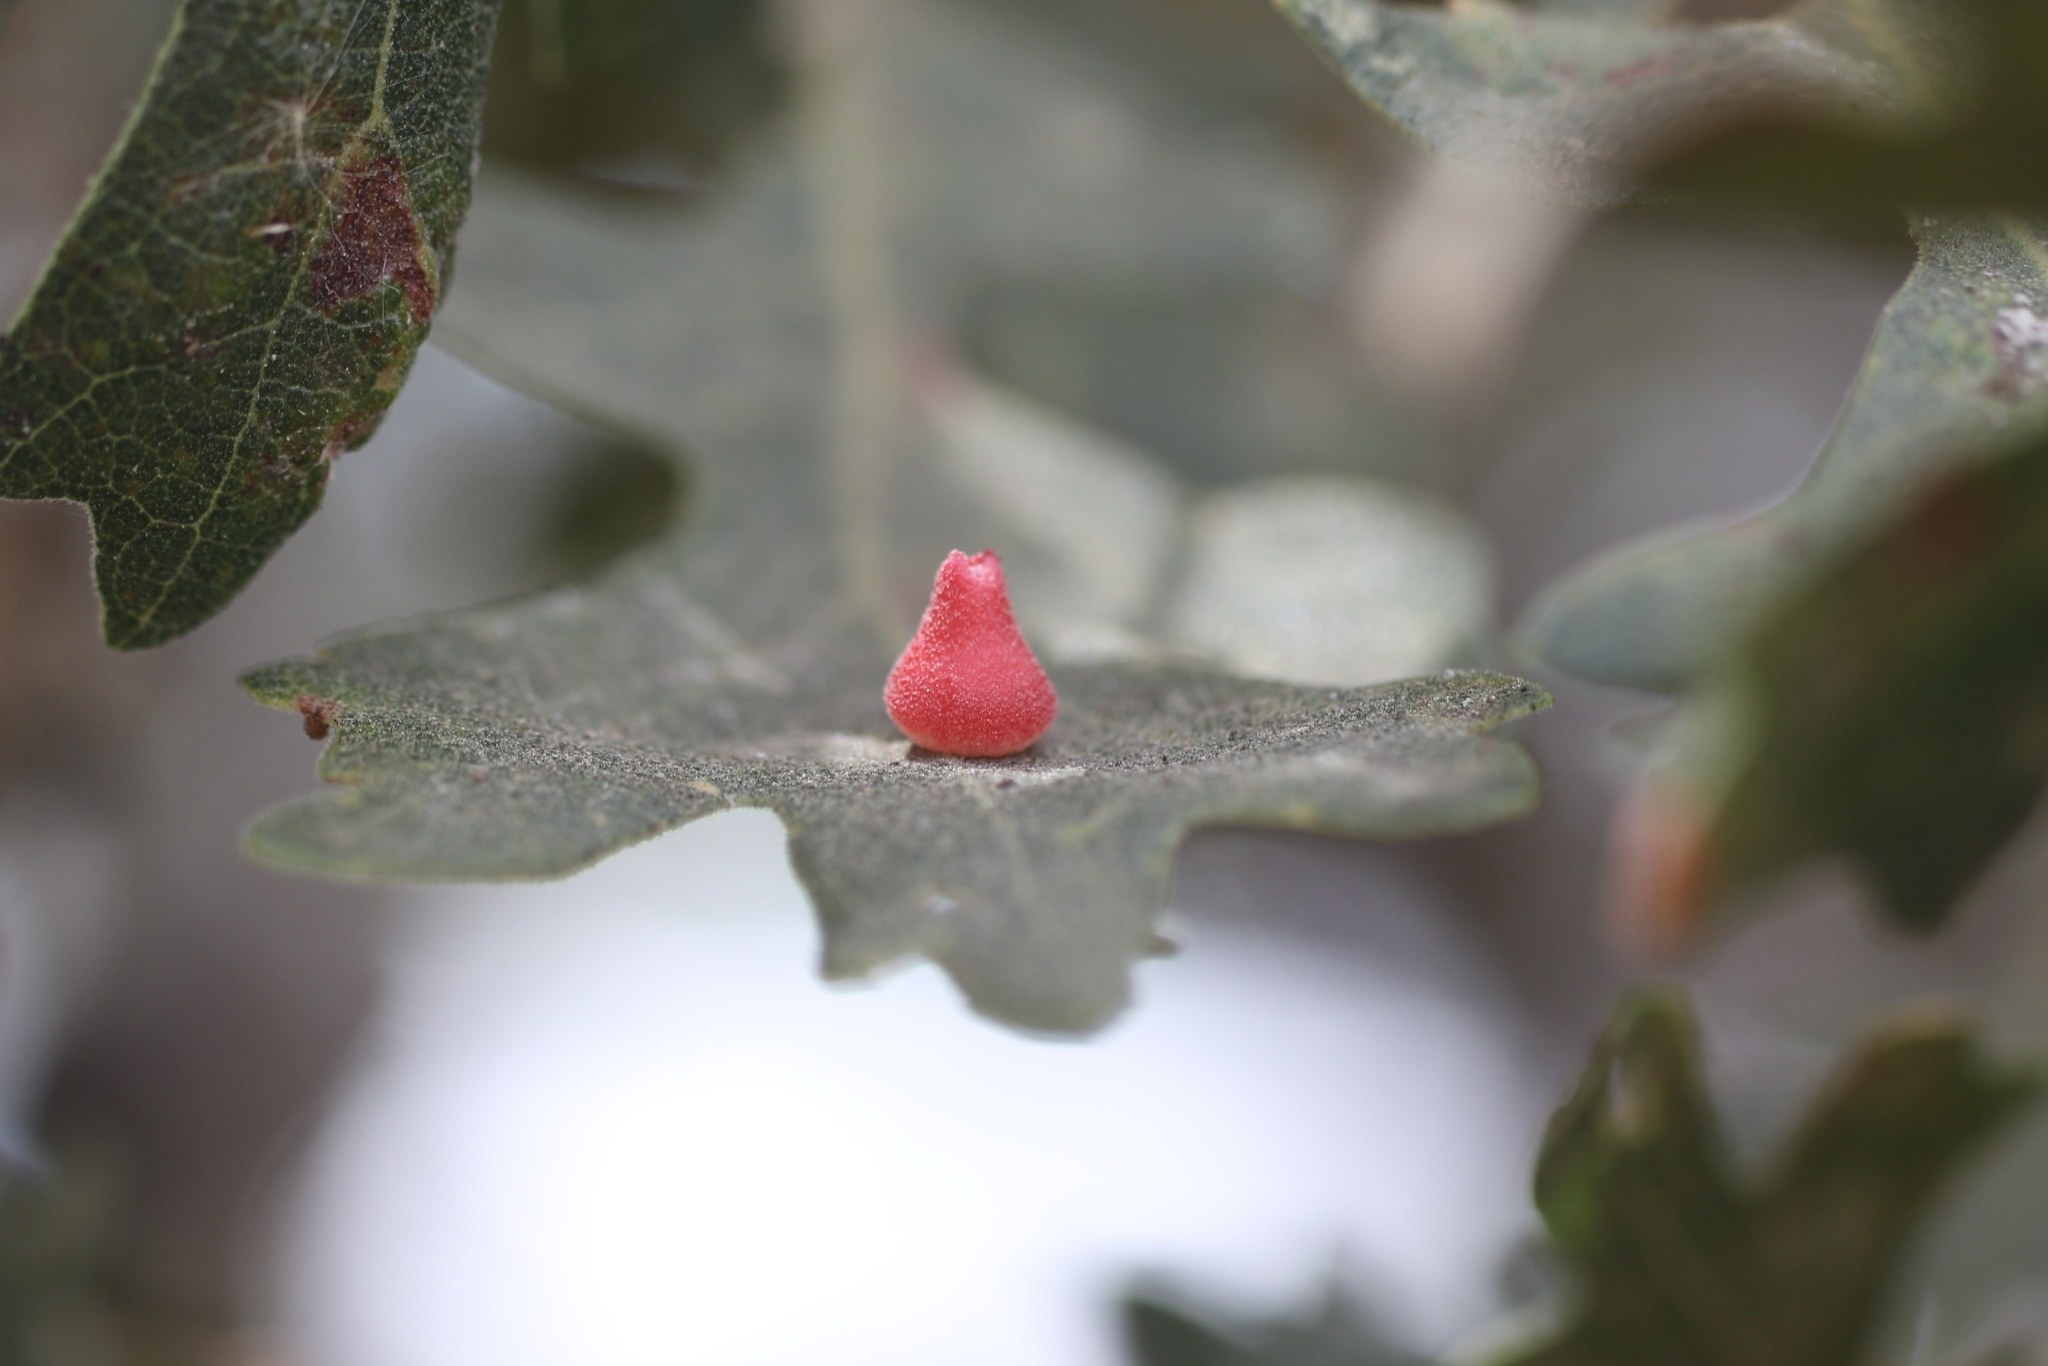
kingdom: Animalia
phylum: Arthropoda
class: Insecta
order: Hymenoptera
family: Cynipidae
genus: Andricus
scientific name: Andricus
